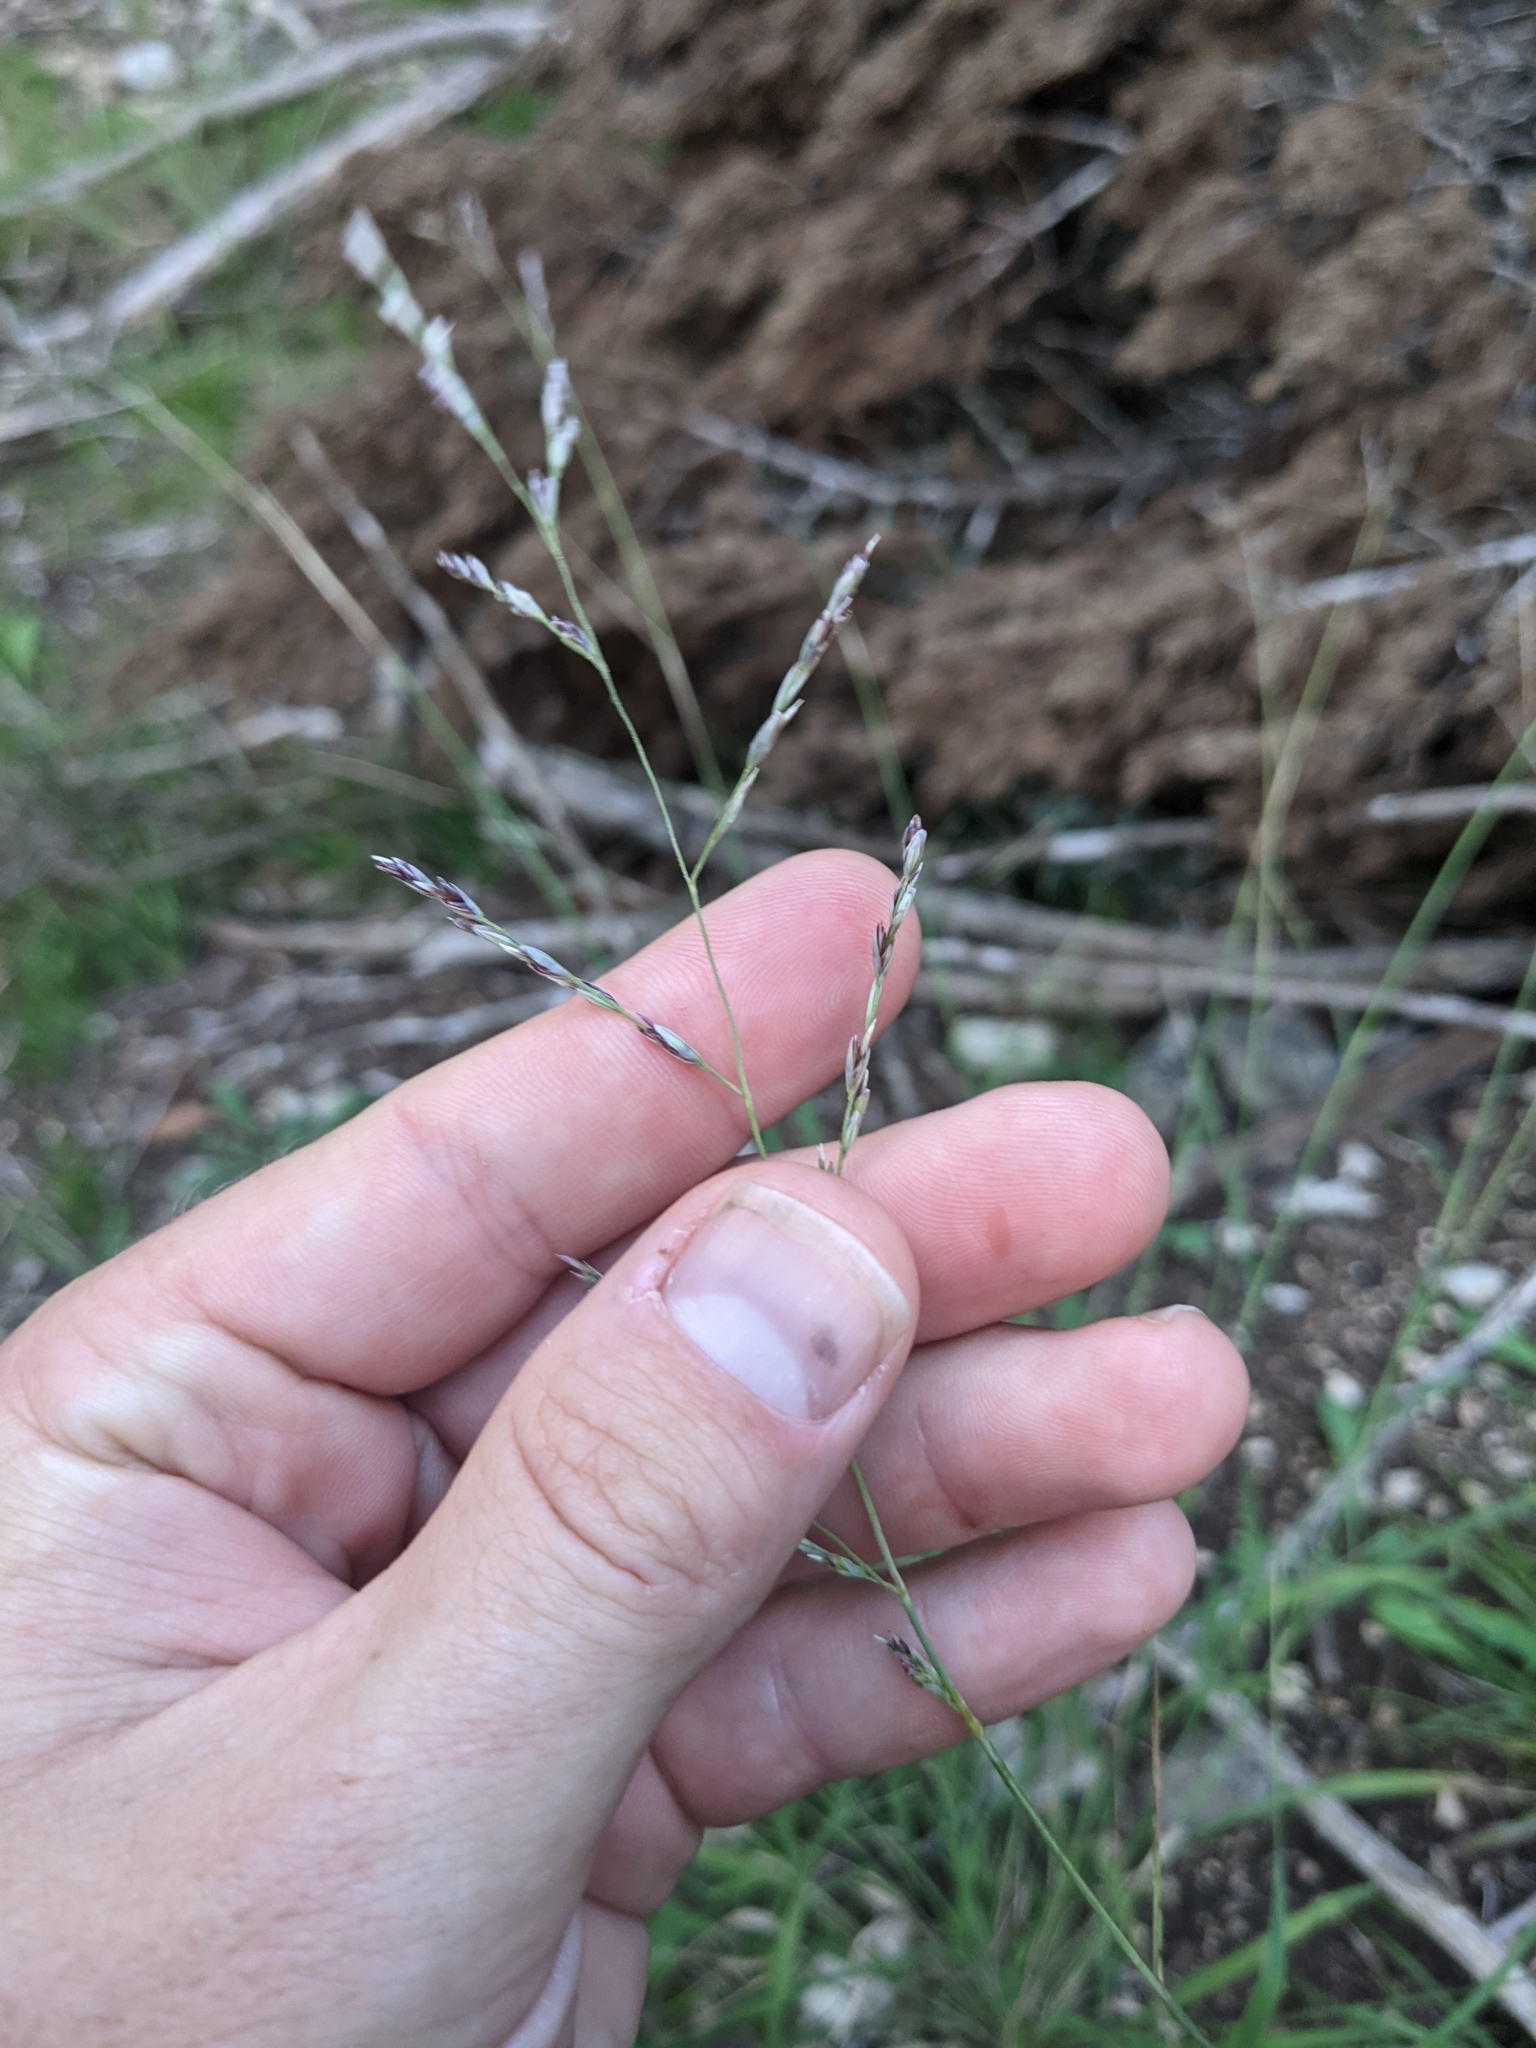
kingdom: Plantae
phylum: Tracheophyta
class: Liliopsida
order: Poales
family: Poaceae
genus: Tridentopsis
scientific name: Tridentopsis buckleyana
